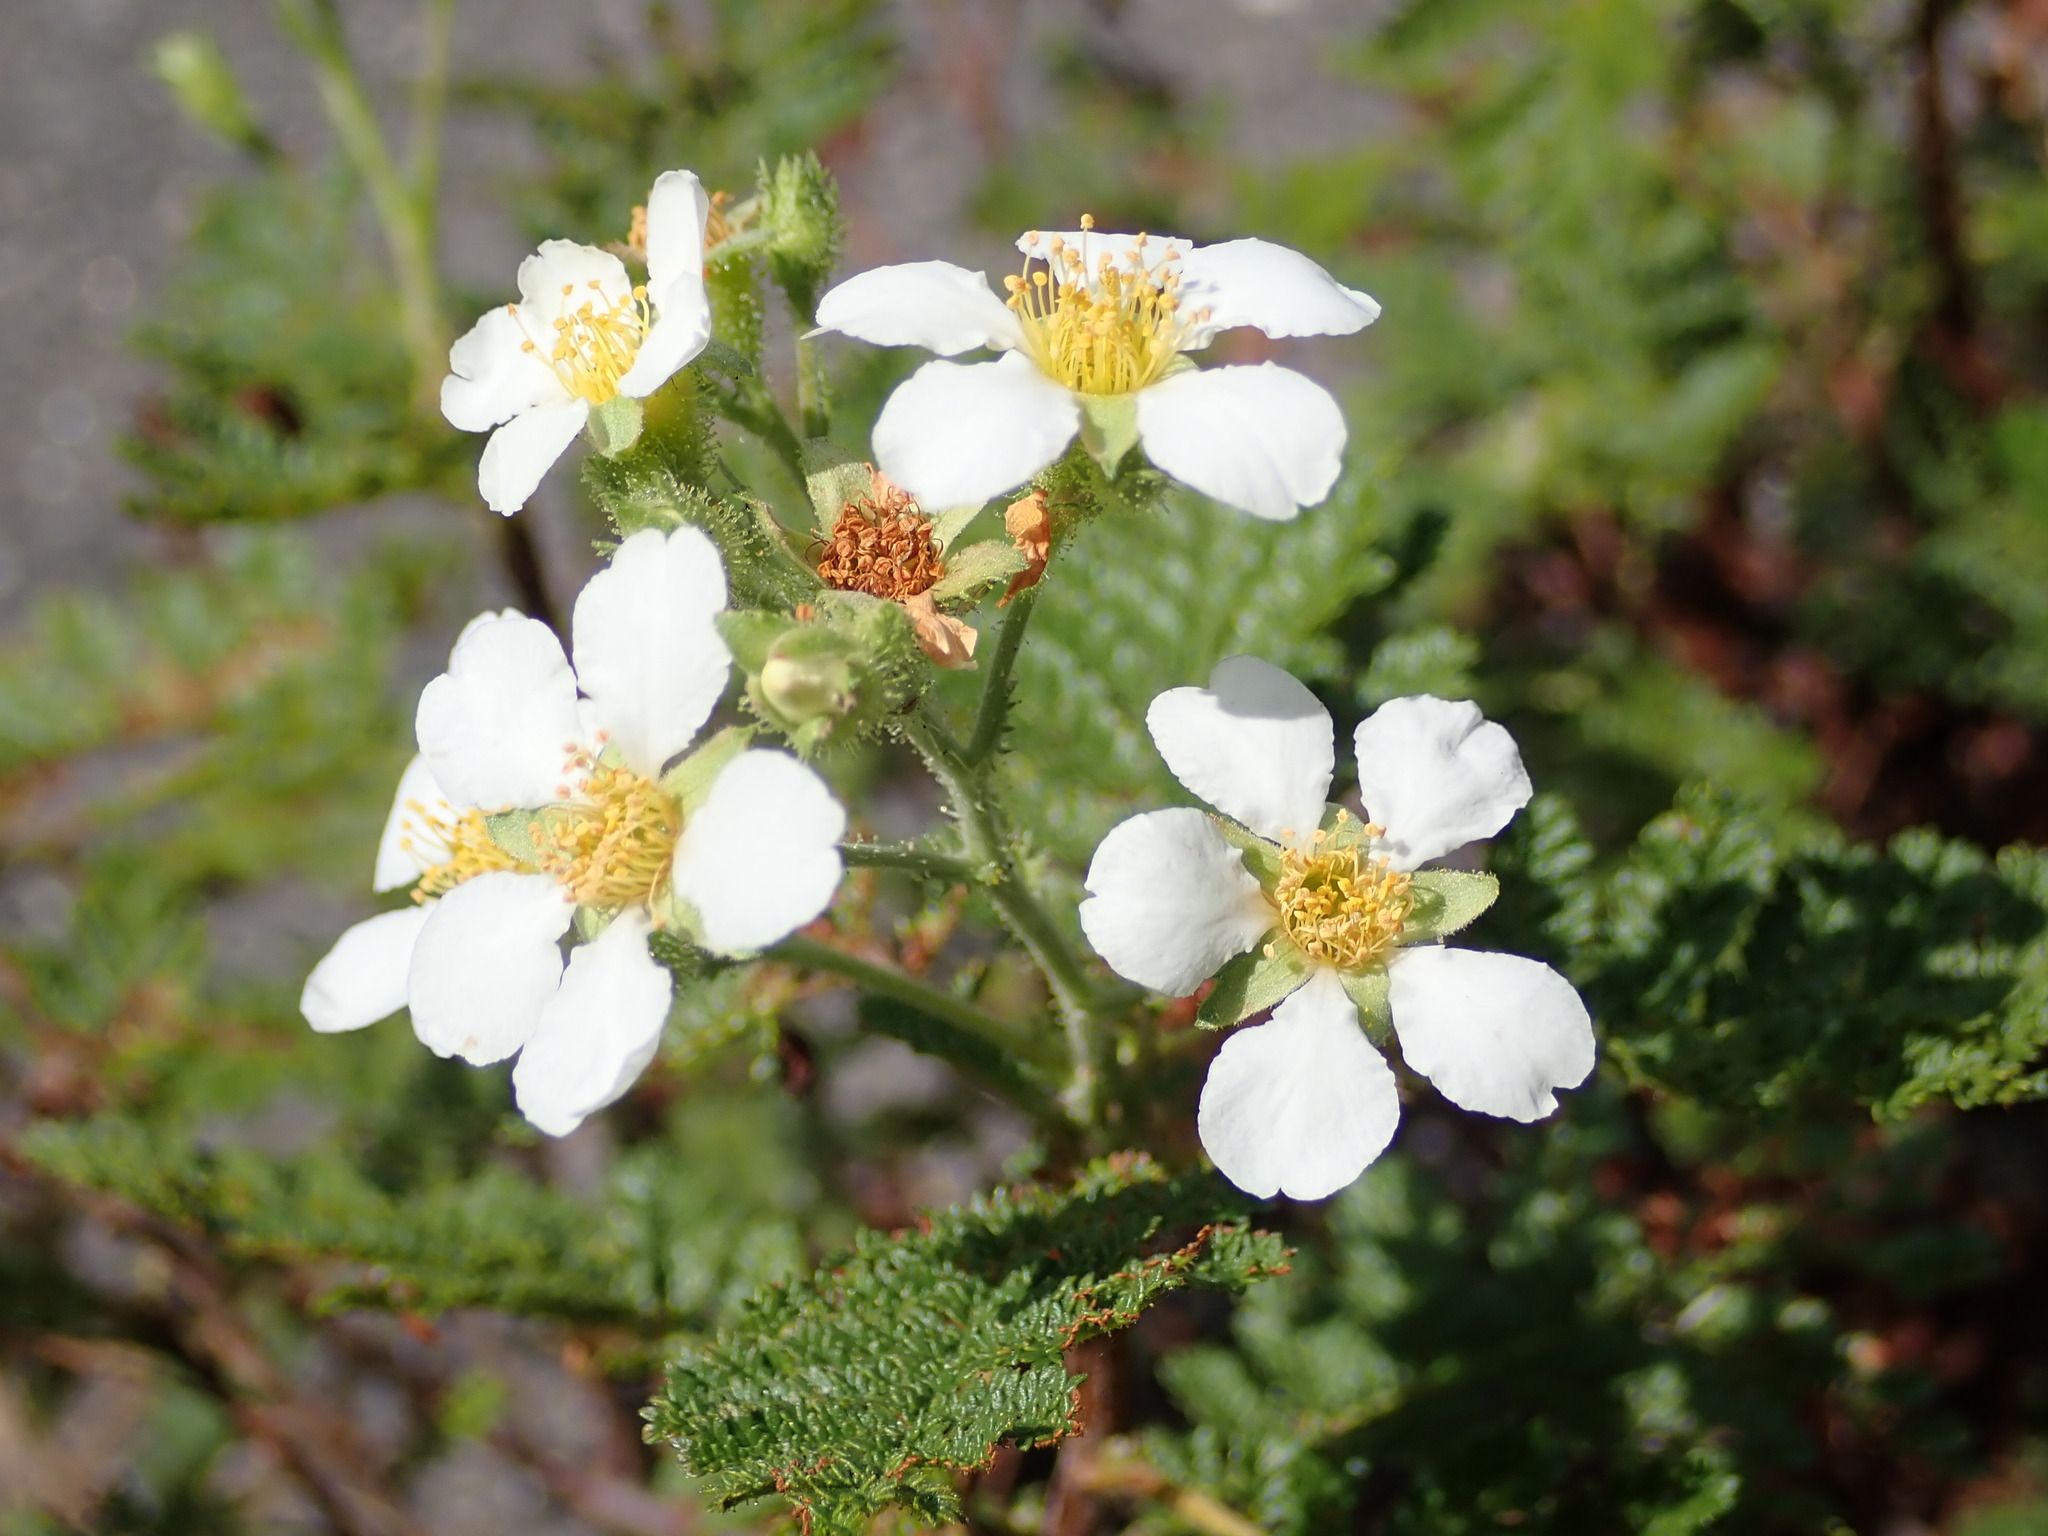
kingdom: Plantae
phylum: Tracheophyta
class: Magnoliopsida
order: Rosales
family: Rosaceae
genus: Chamaebatia
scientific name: Chamaebatia foliolosa
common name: Mountain misery
